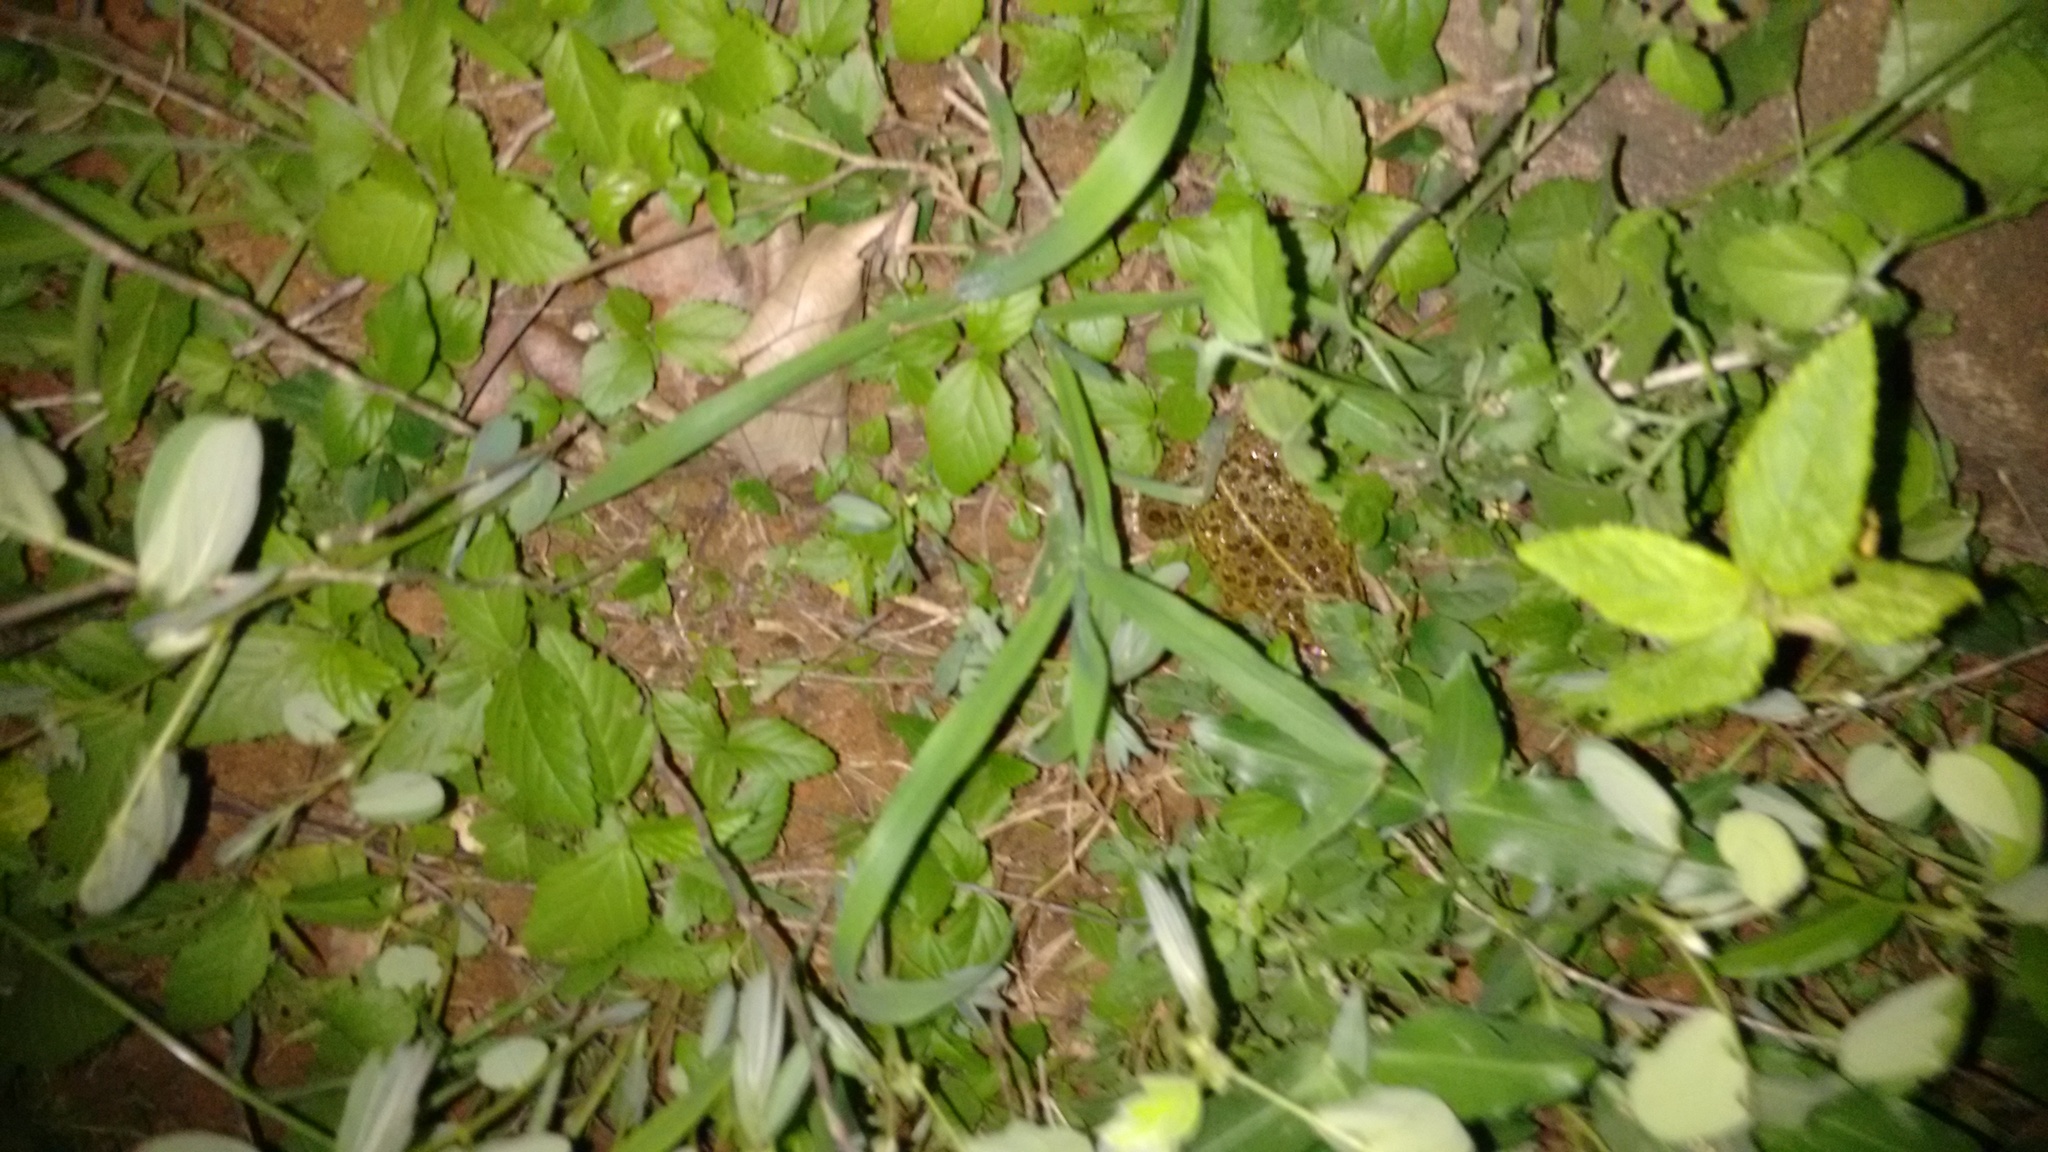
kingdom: Animalia
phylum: Chordata
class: Amphibia
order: Anura
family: Dicroglossidae
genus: Hoplobatrachus
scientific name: Hoplobatrachus tigerinus
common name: Indian bullfrog
